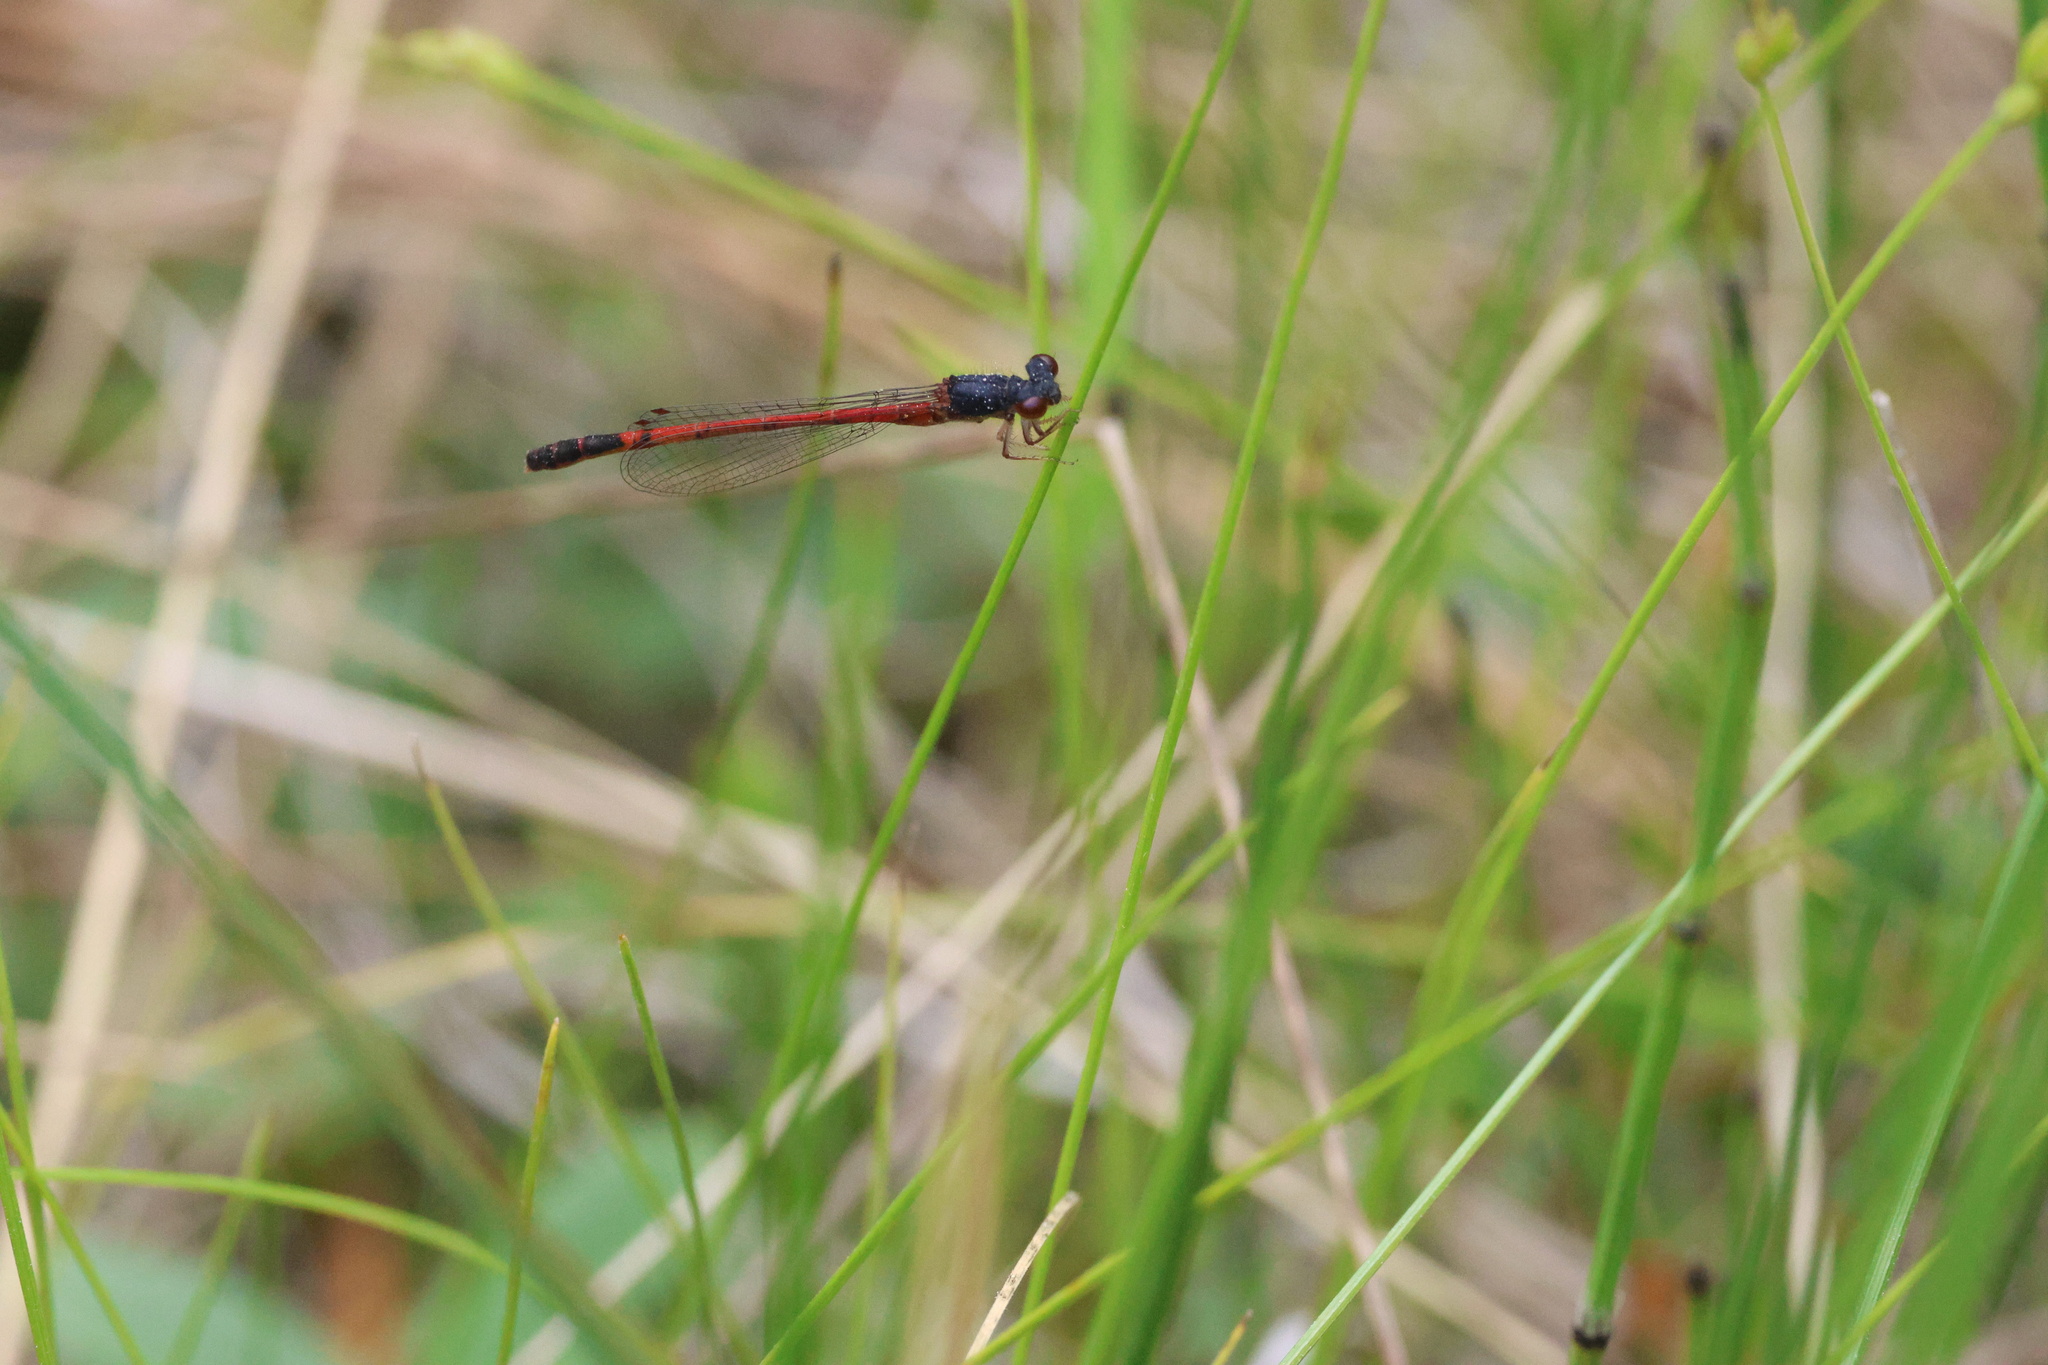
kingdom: Animalia
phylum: Arthropoda
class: Insecta
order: Odonata
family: Coenagrionidae
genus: Amphiagrion
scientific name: Amphiagrion saucium
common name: Eastern red damsel
